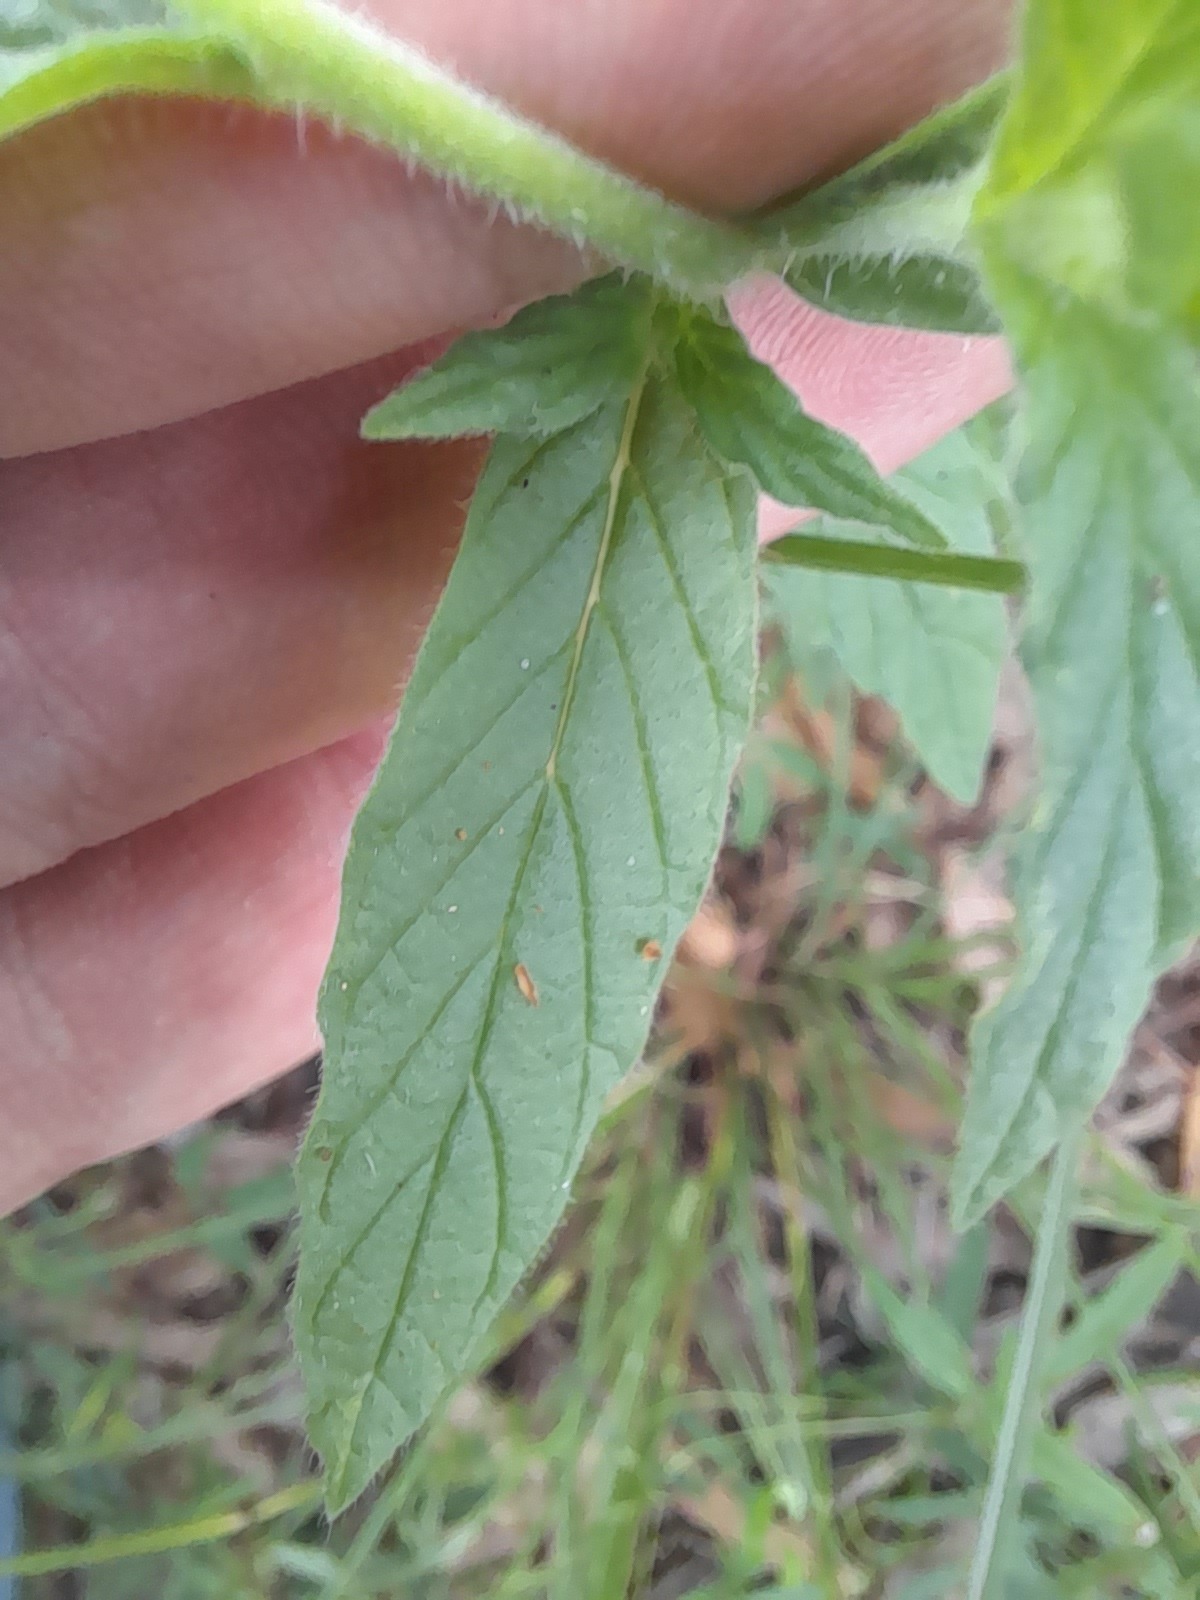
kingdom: Plantae
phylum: Tracheophyta
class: Magnoliopsida
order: Boraginales
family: Heliotropiaceae
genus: Heliotropium
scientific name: Heliotropium amplexicaule
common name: Clasping heliotrope
